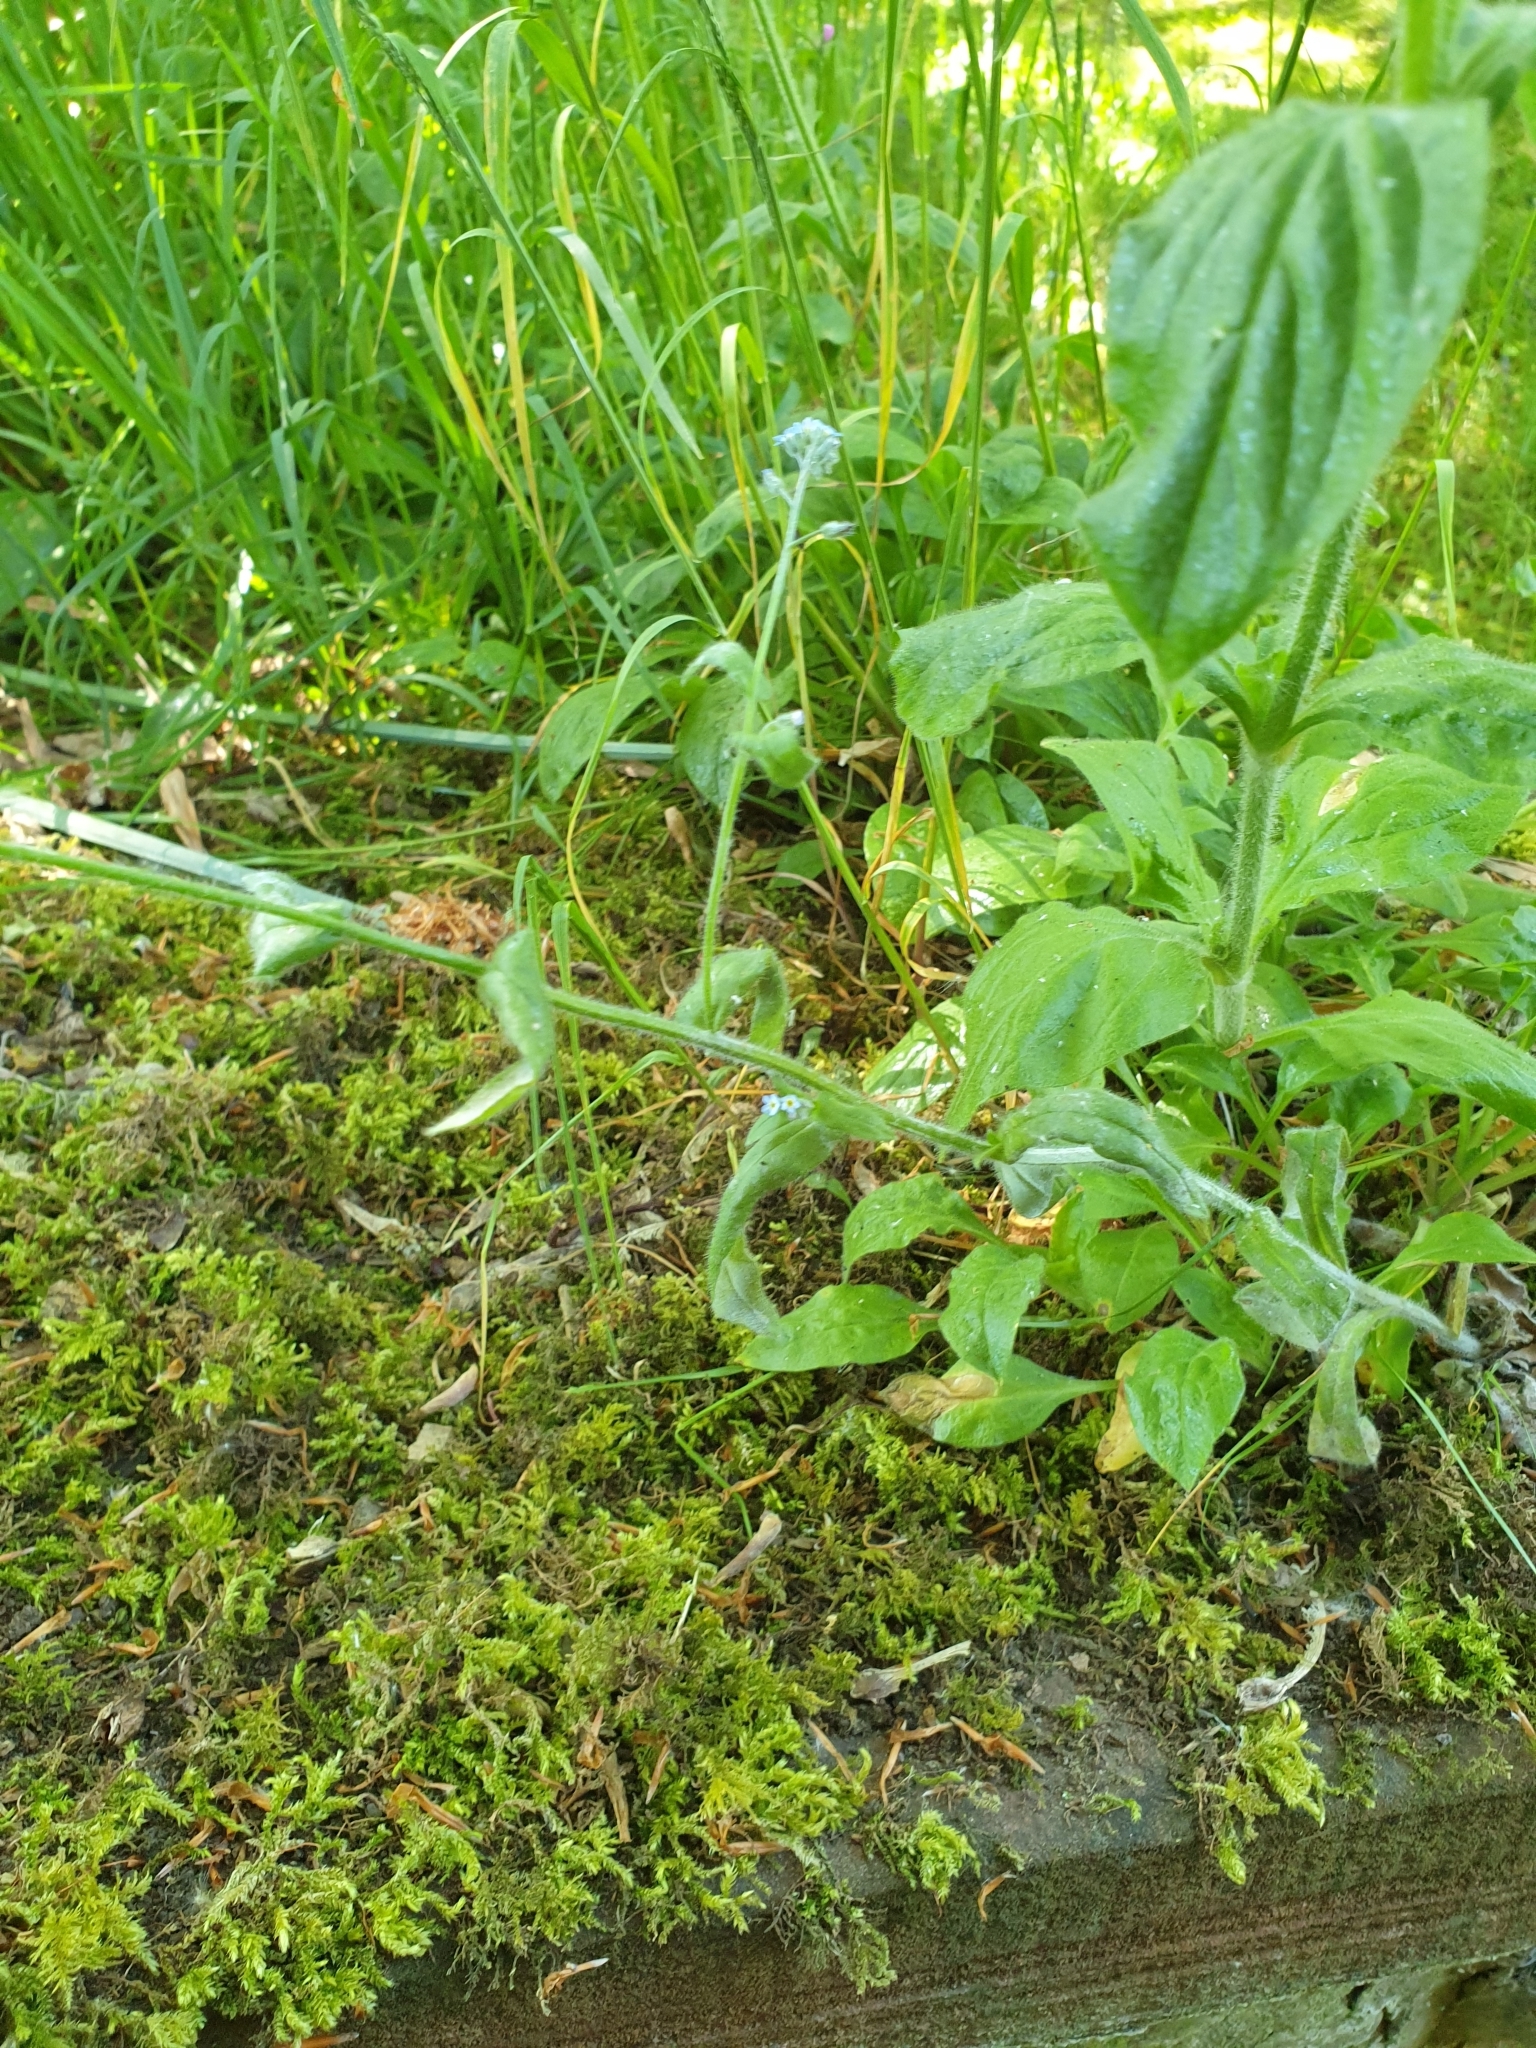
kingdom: Plantae
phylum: Tracheophyta
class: Magnoliopsida
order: Boraginales
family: Boraginaceae
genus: Myosotis
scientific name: Myosotis arvensis
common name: Field forget-me-not
